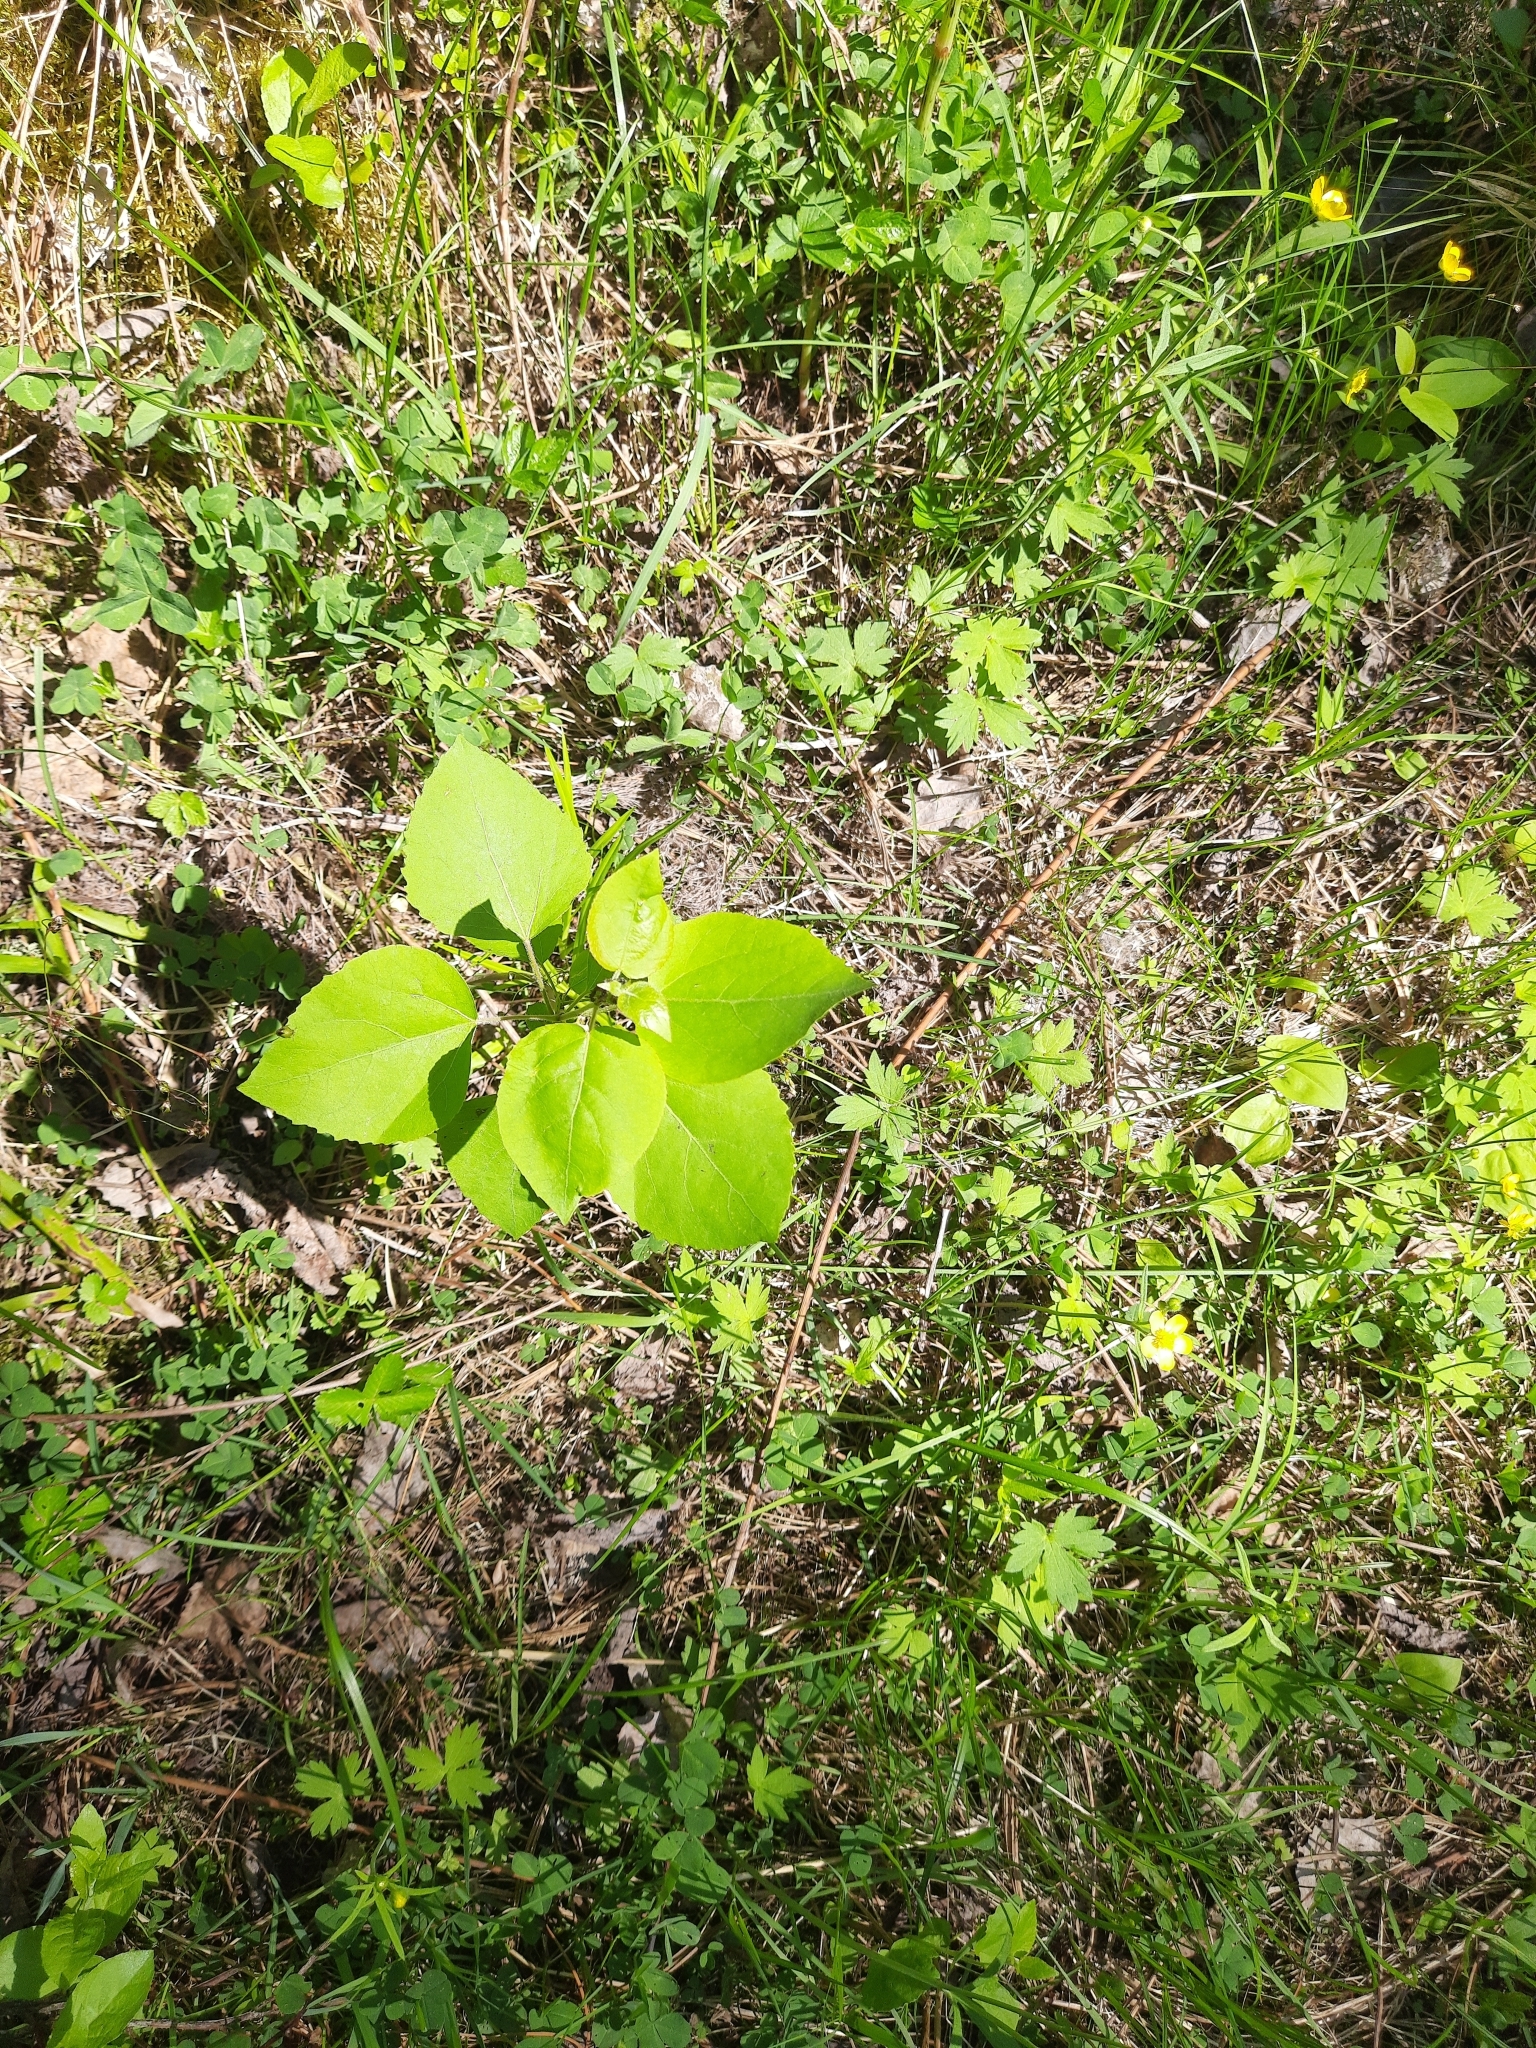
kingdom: Plantae
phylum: Tracheophyta
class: Magnoliopsida
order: Malpighiales
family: Salicaceae
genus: Populus
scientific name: Populus tremula
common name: European aspen
